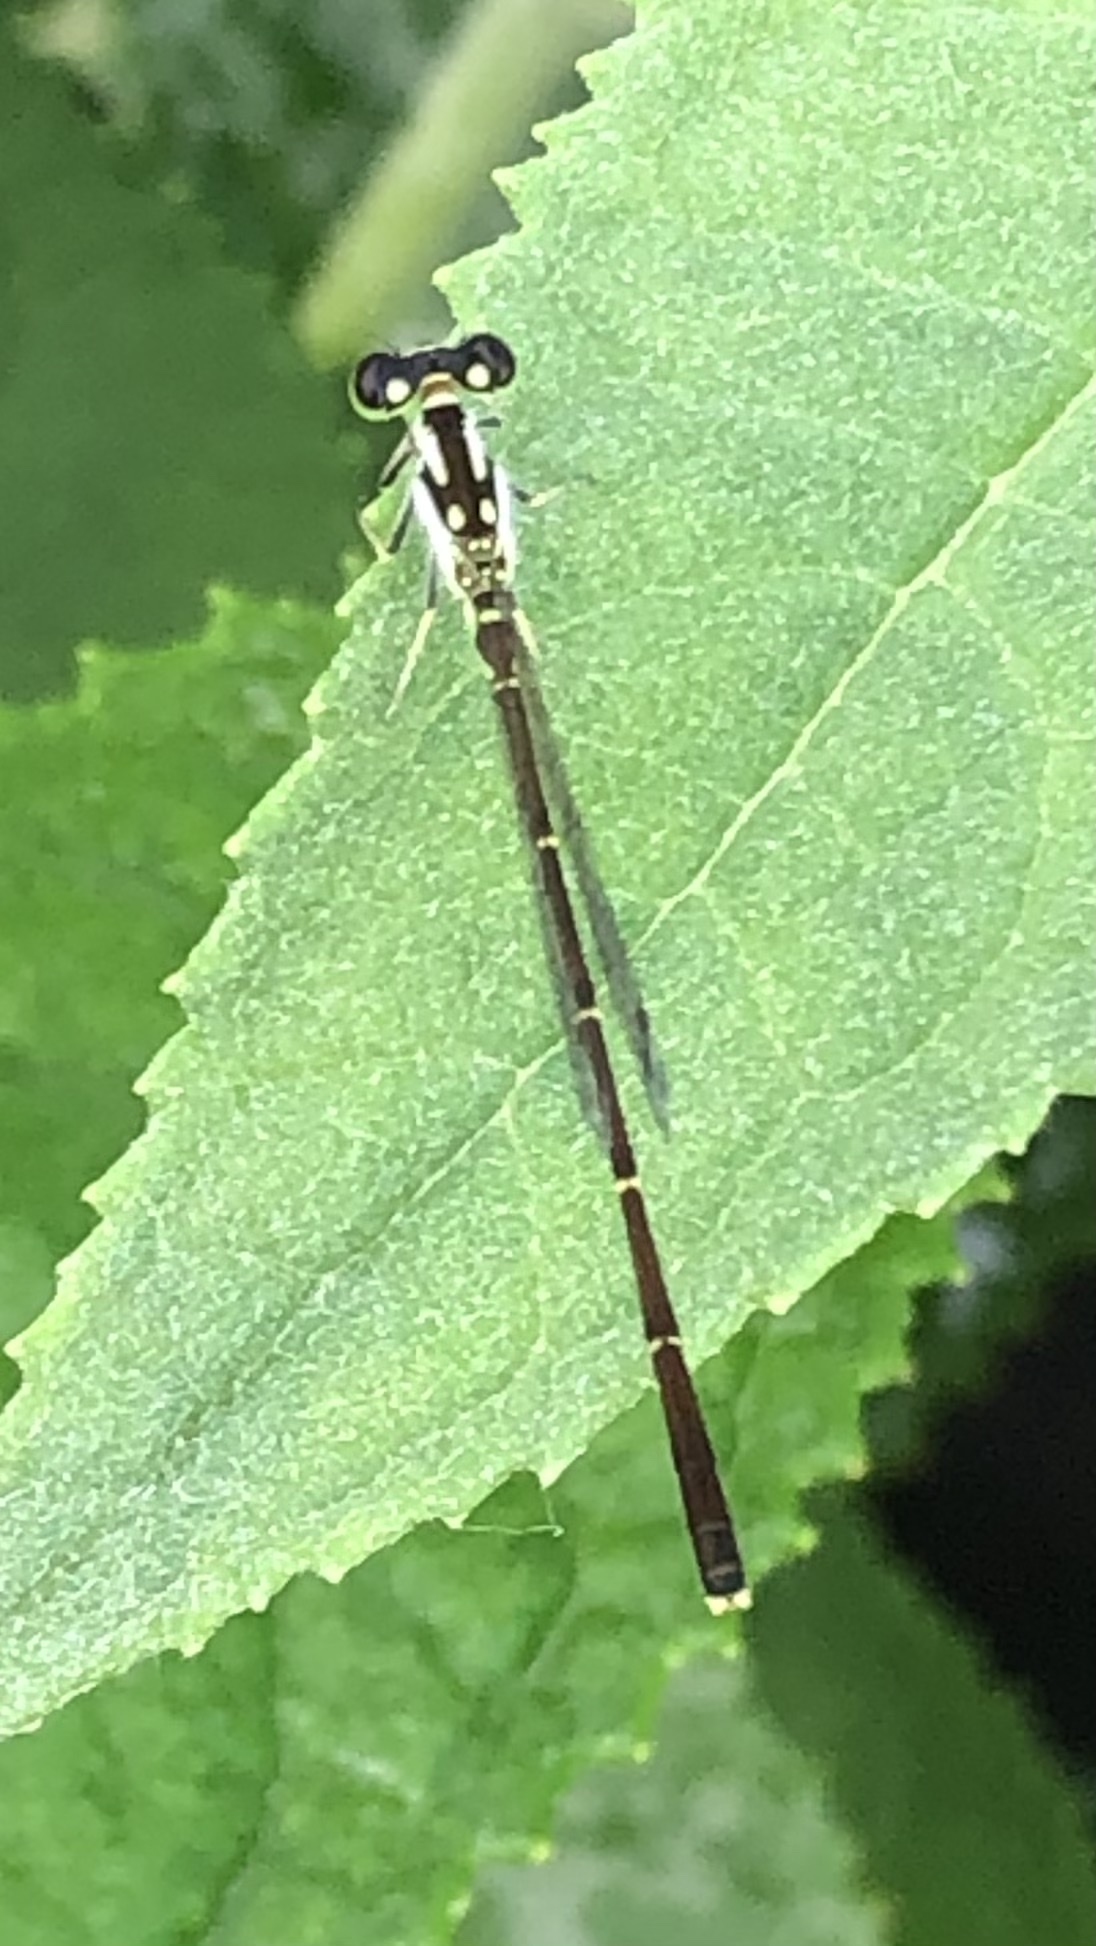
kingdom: Animalia
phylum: Arthropoda
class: Insecta
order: Odonata
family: Coenagrionidae
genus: Ischnura
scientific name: Ischnura posita
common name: Fragile forktail
